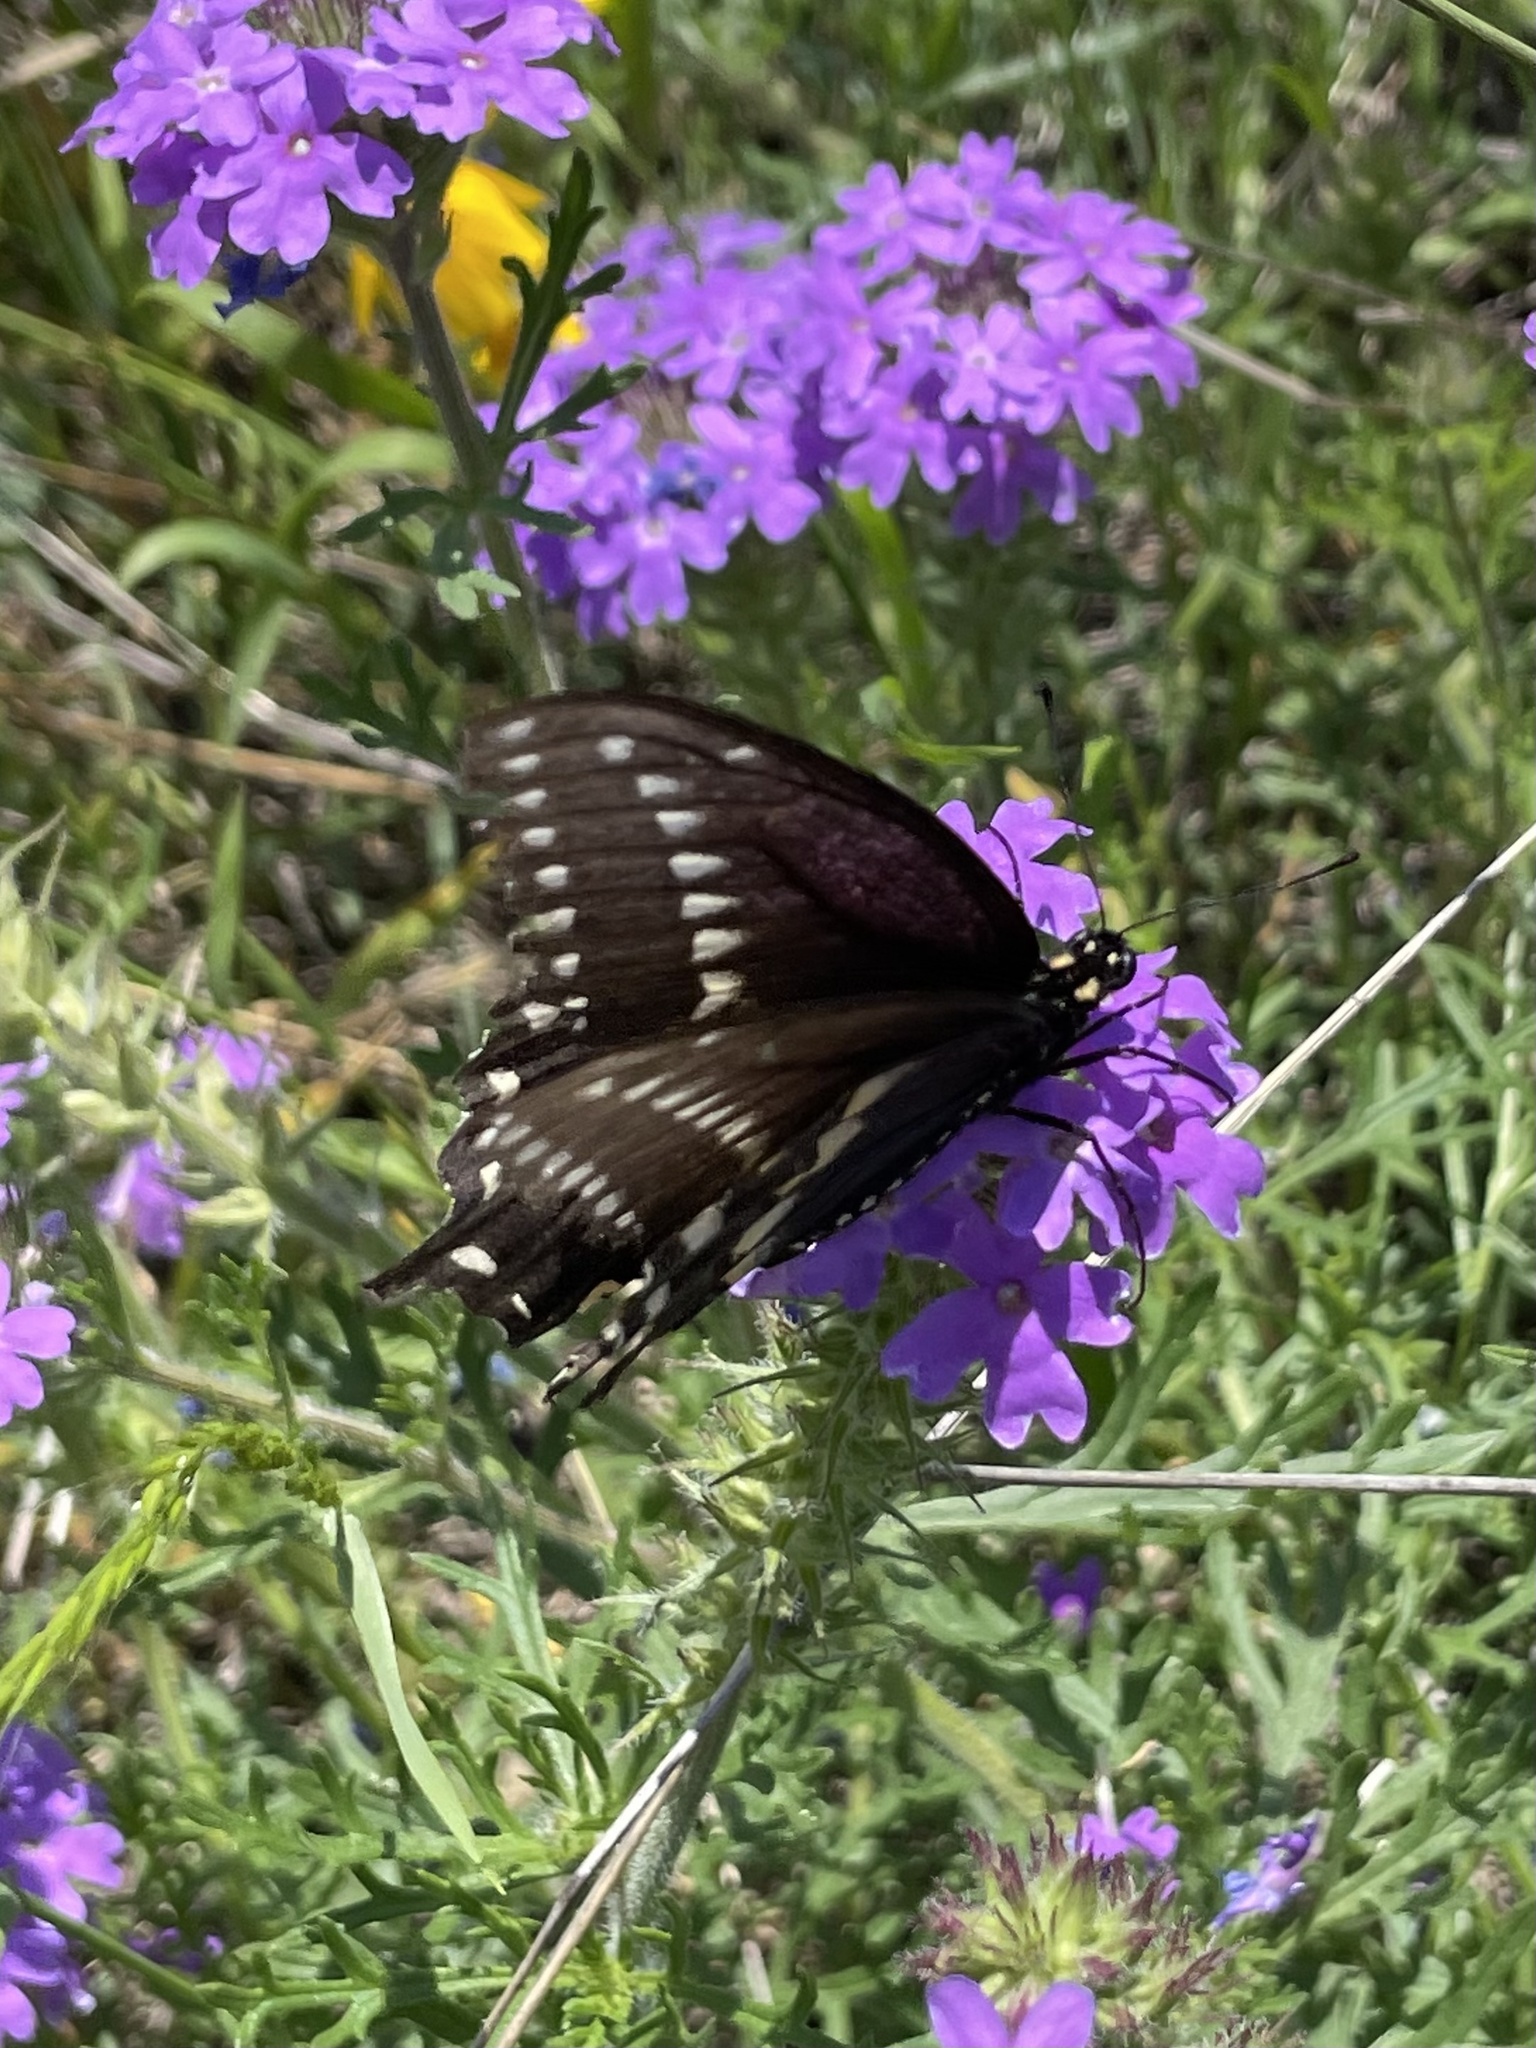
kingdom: Animalia
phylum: Arthropoda
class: Insecta
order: Lepidoptera
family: Papilionidae
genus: Papilio
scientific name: Papilio polyxenes
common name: Black swallowtail
